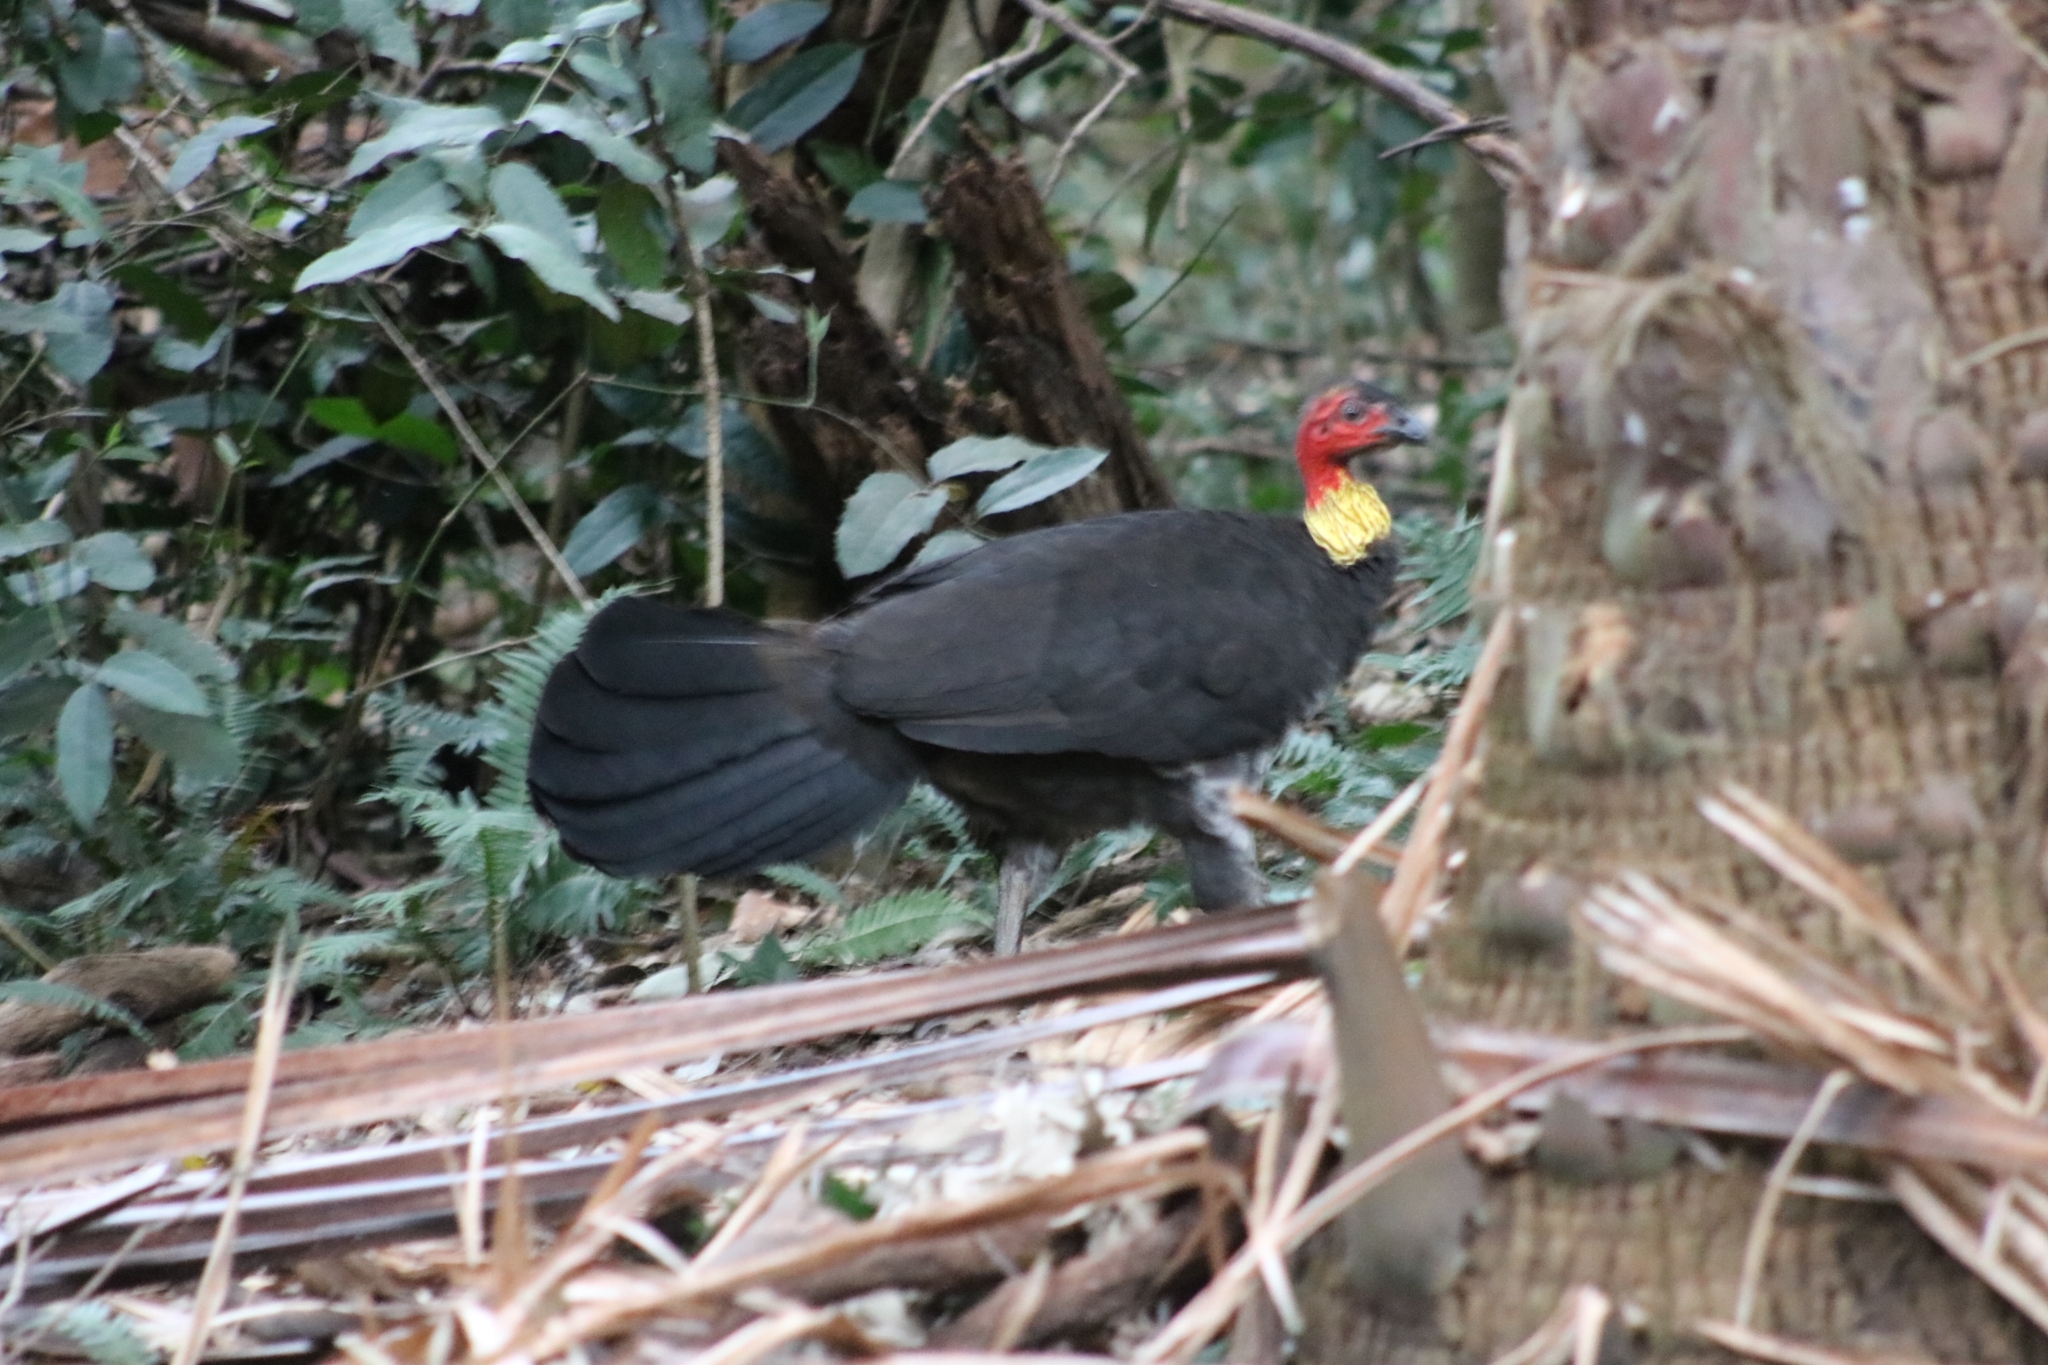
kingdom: Animalia
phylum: Chordata
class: Aves
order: Galliformes
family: Megapodiidae
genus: Alectura
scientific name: Alectura lathami
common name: Australian brushturkey
